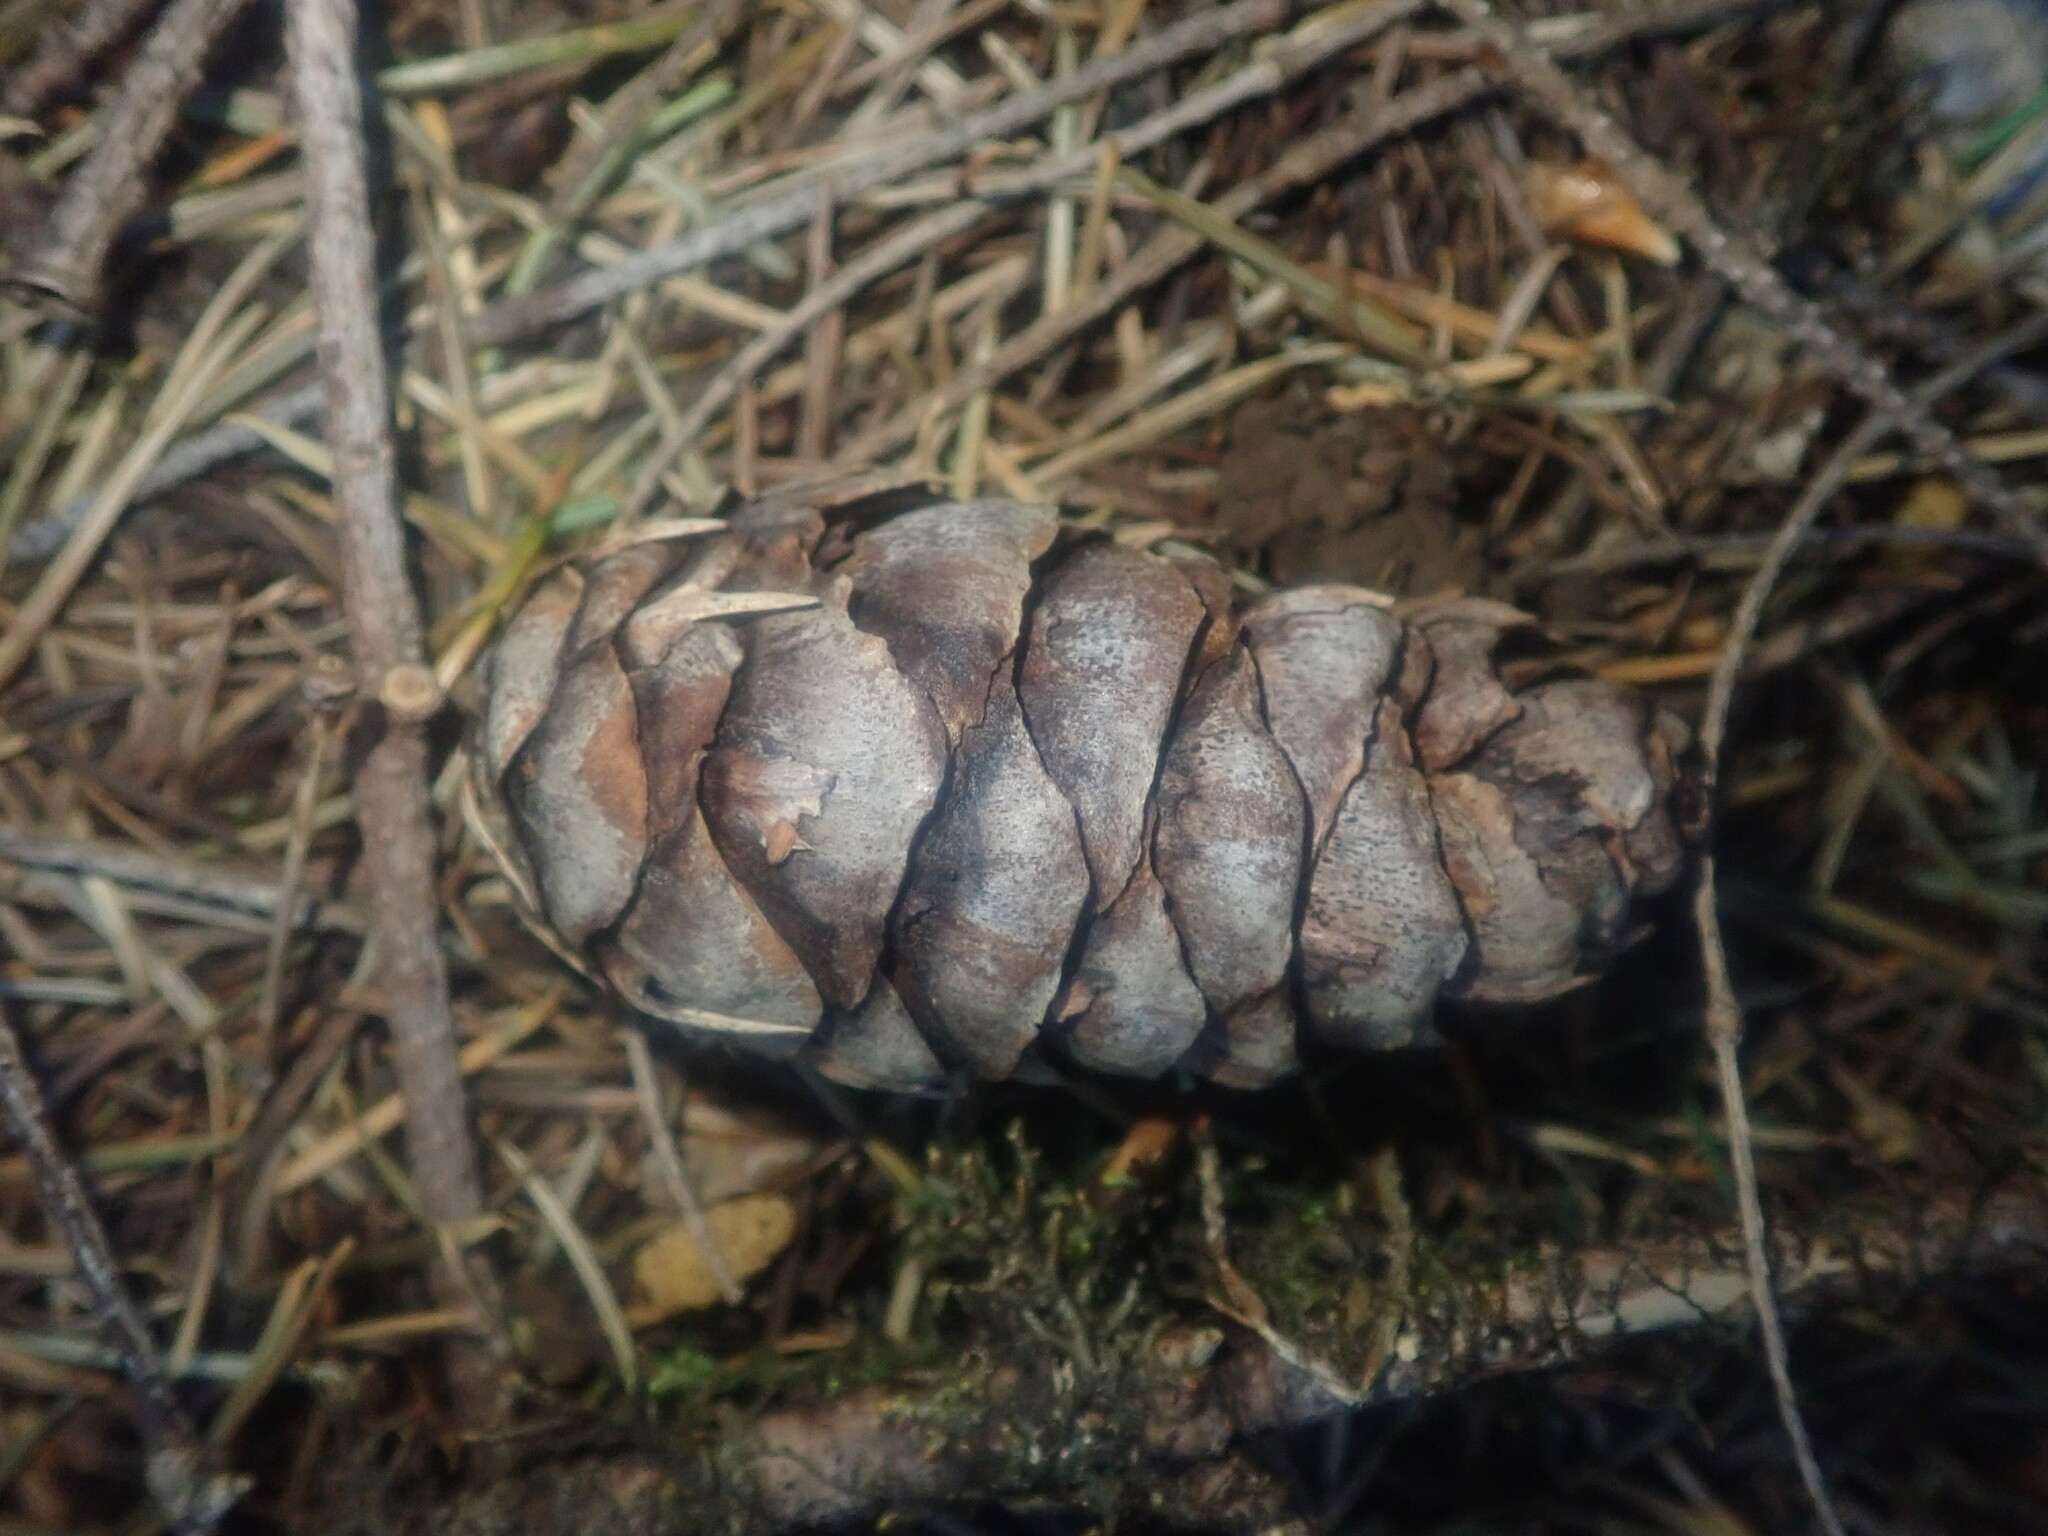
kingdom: Plantae
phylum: Tracheophyta
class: Pinopsida
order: Pinales
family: Pinaceae
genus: Pseudotsuga
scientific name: Pseudotsuga menziesii
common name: Douglas fir
